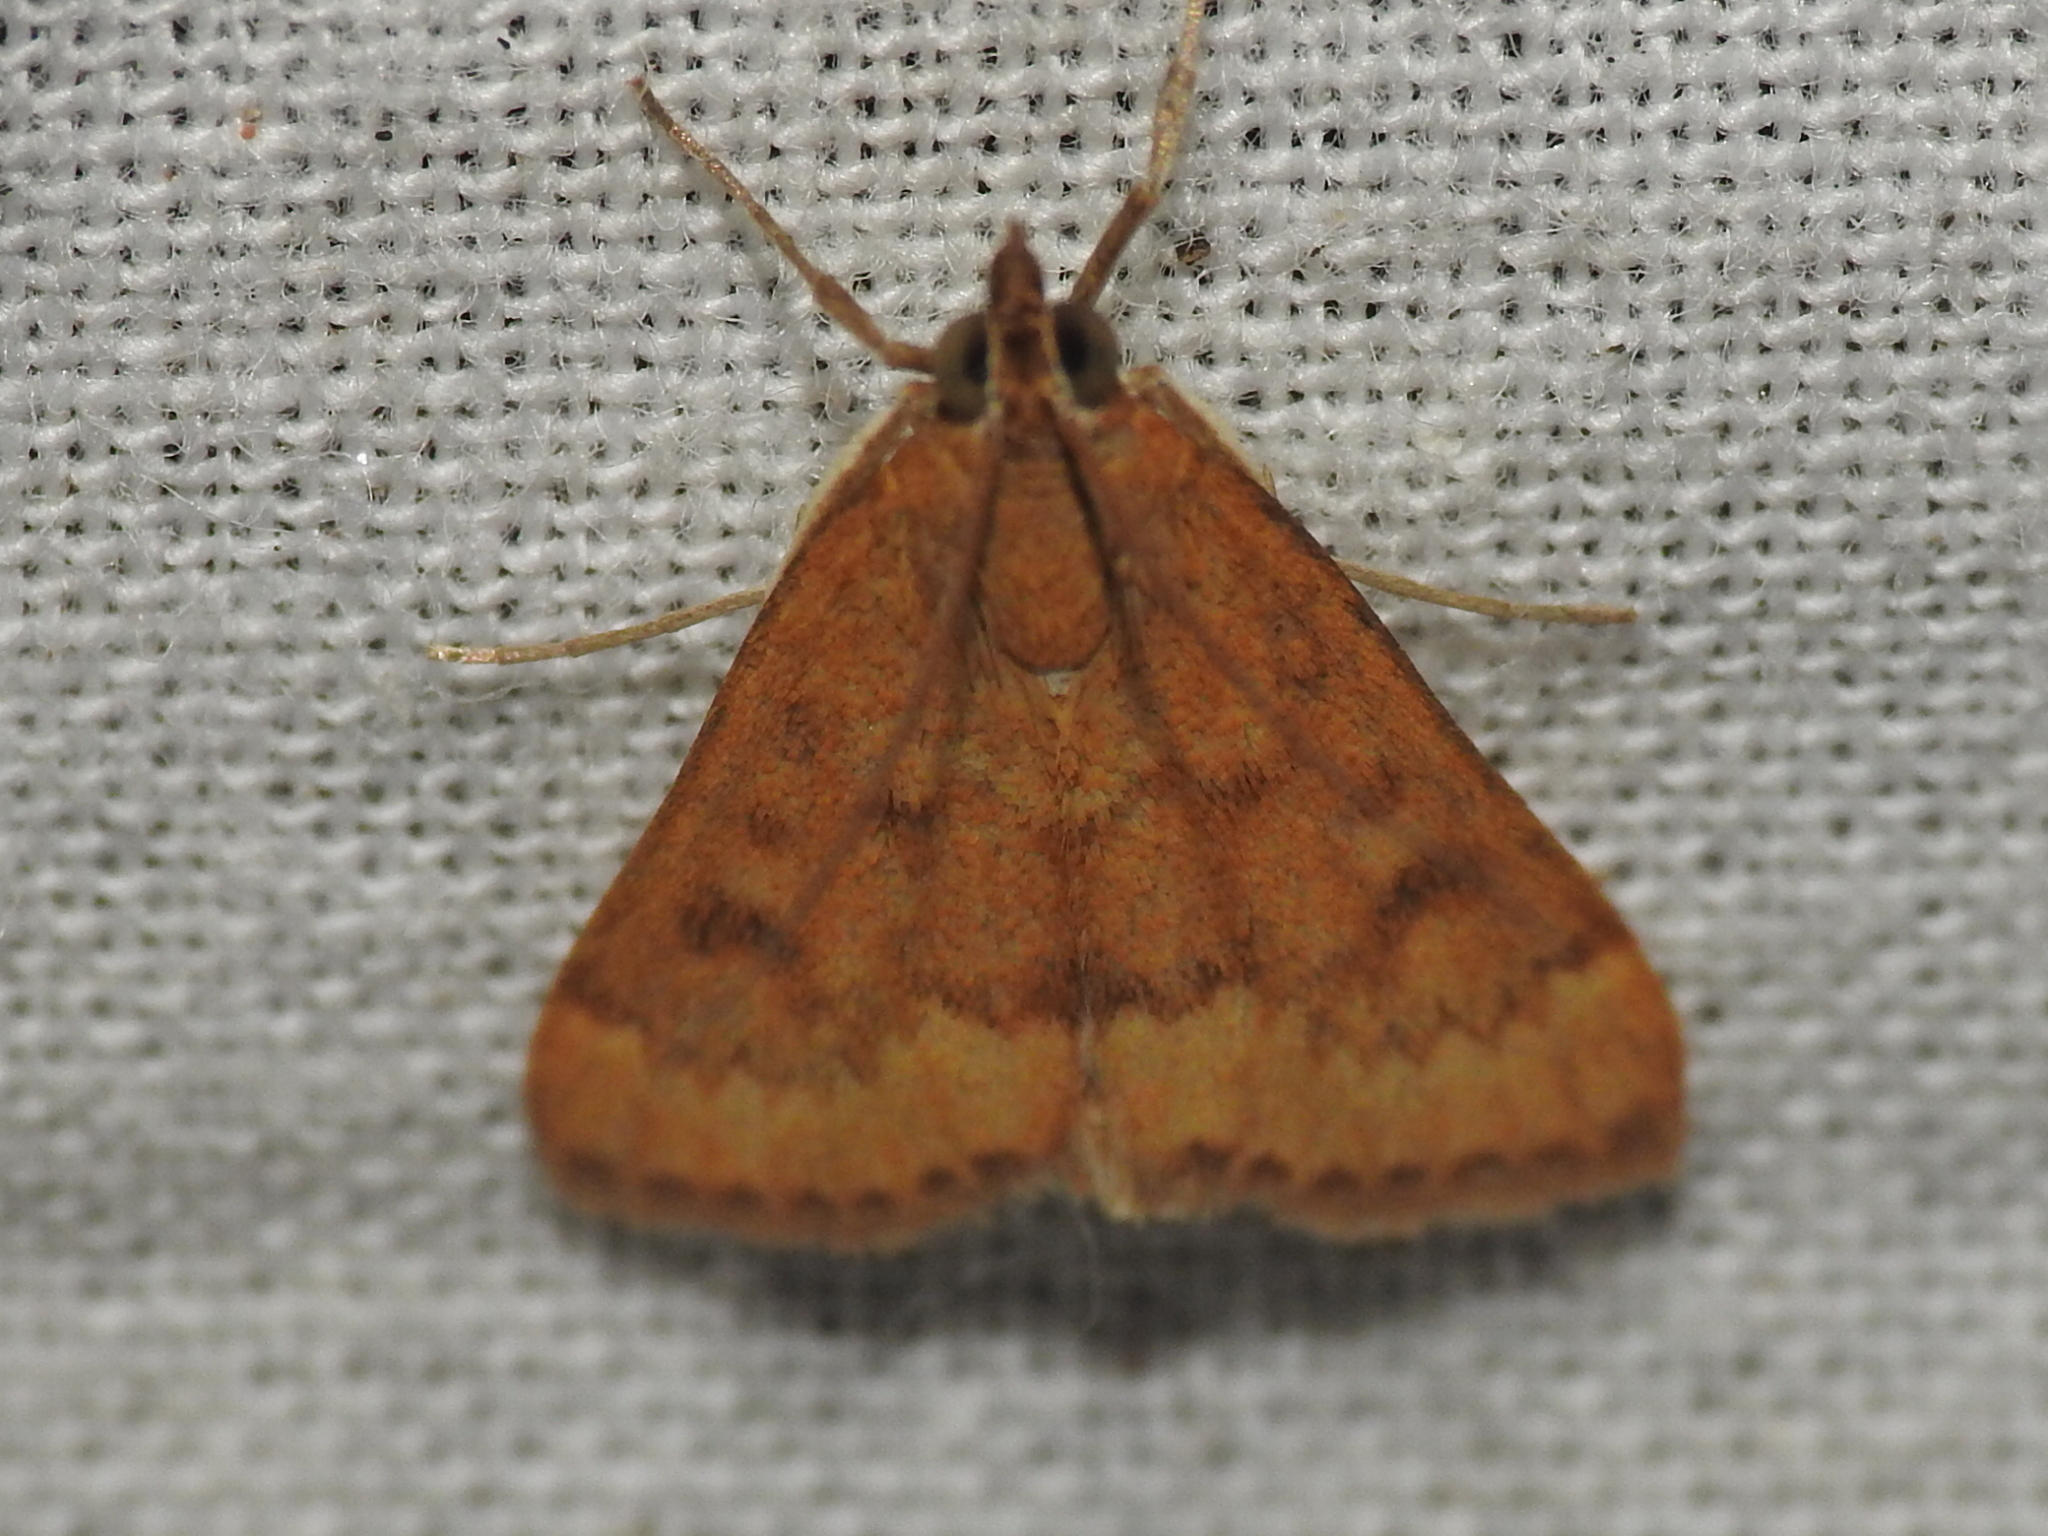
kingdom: Animalia
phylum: Arthropoda
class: Insecta
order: Lepidoptera
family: Crambidae
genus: Achyra
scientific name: Achyra rantalis
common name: Garden webworm
